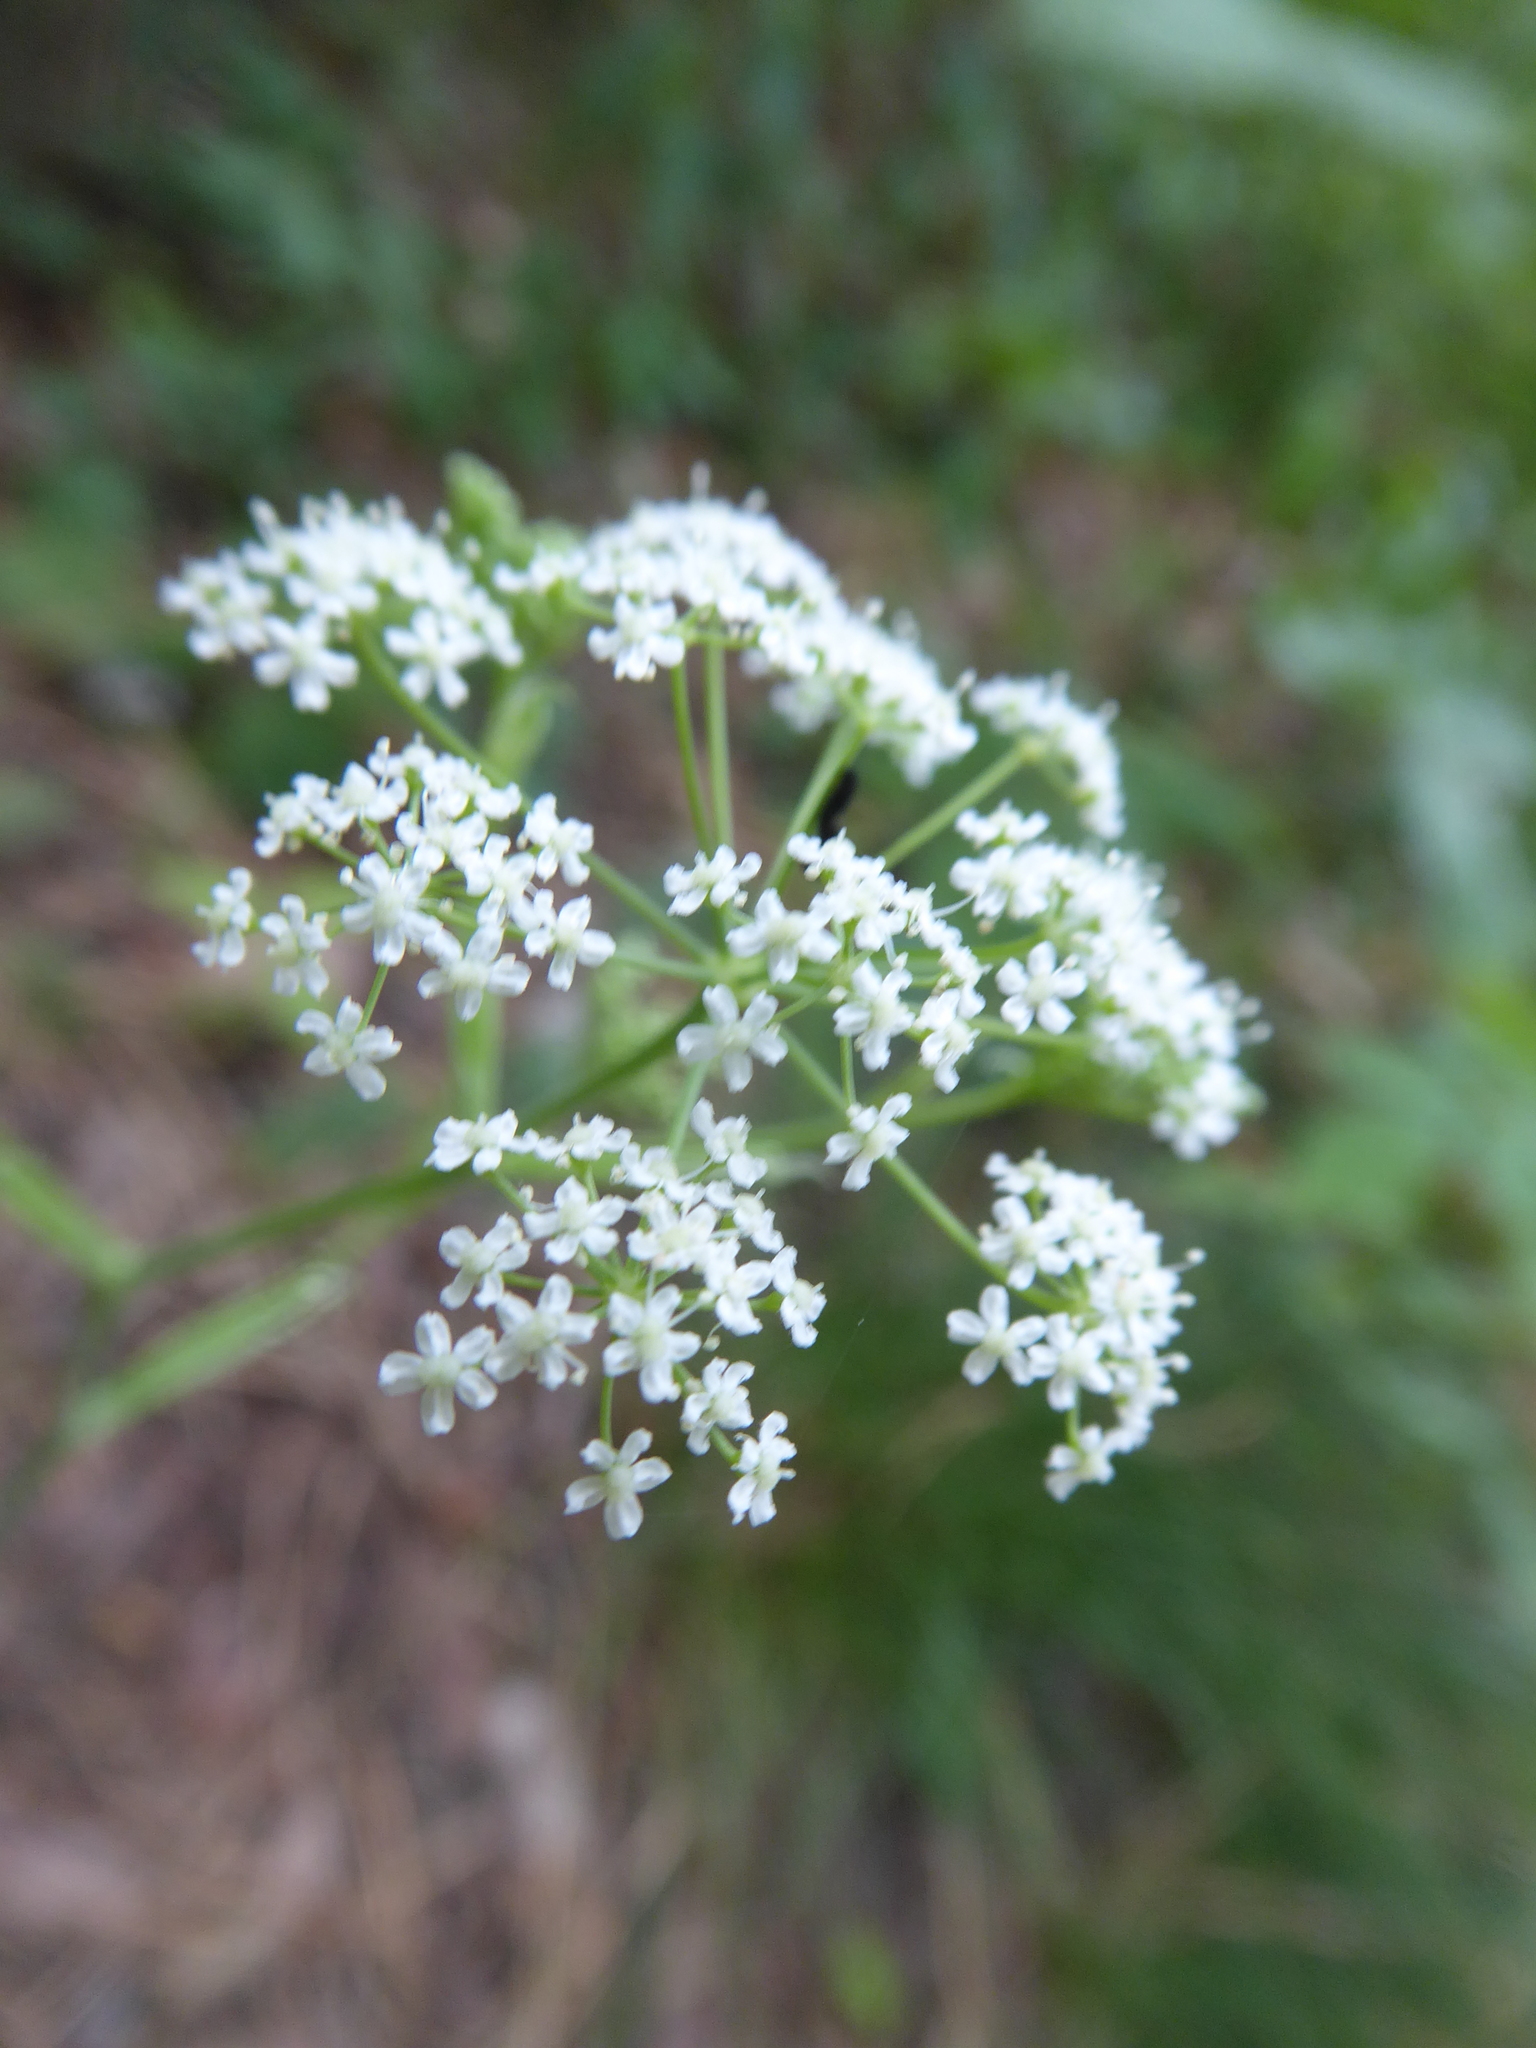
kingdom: Plantae
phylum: Tracheophyta
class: Magnoliopsida
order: Apiales
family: Apiaceae
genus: Pimpinella
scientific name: Pimpinella saxifraga
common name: Burnet-saxifrage
